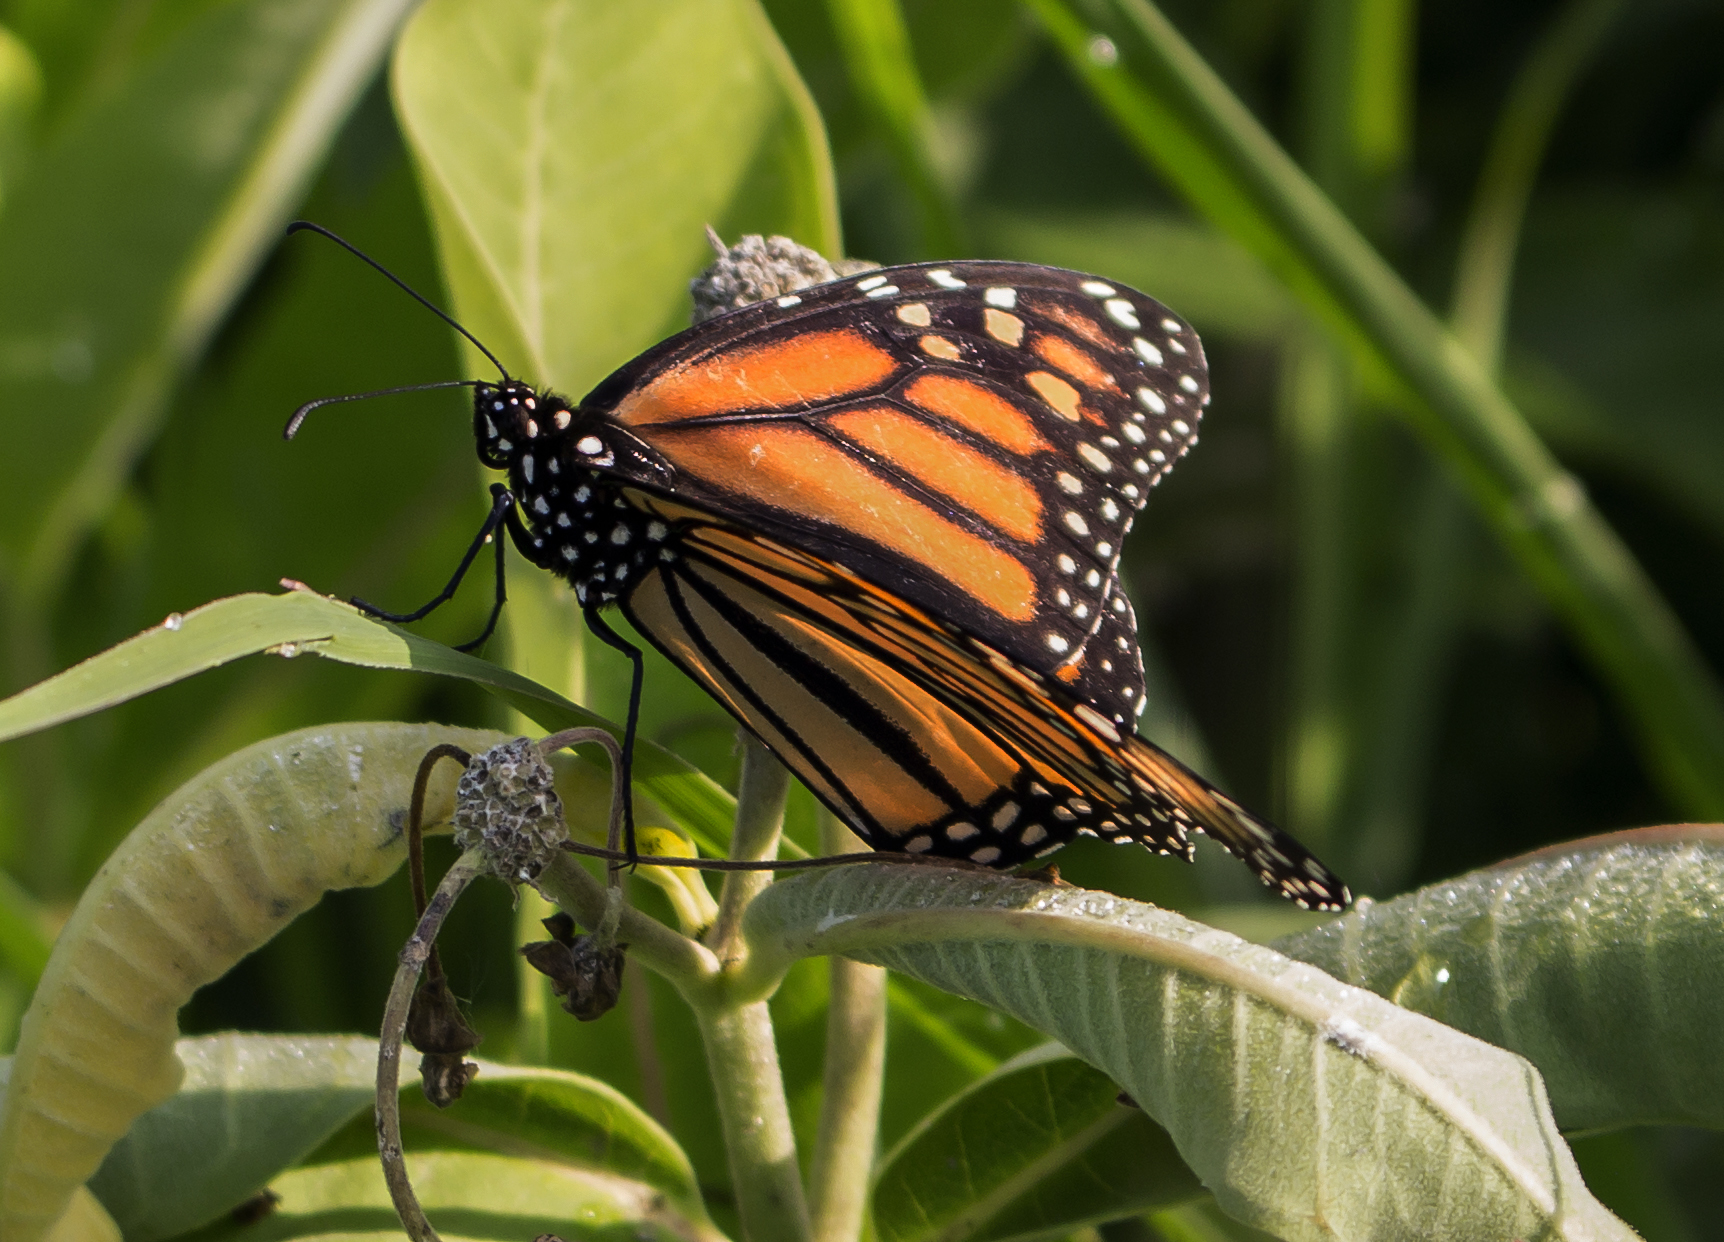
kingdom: Animalia
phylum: Arthropoda
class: Insecta
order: Lepidoptera
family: Nymphalidae
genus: Danaus
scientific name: Danaus plexippus
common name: Monarch
